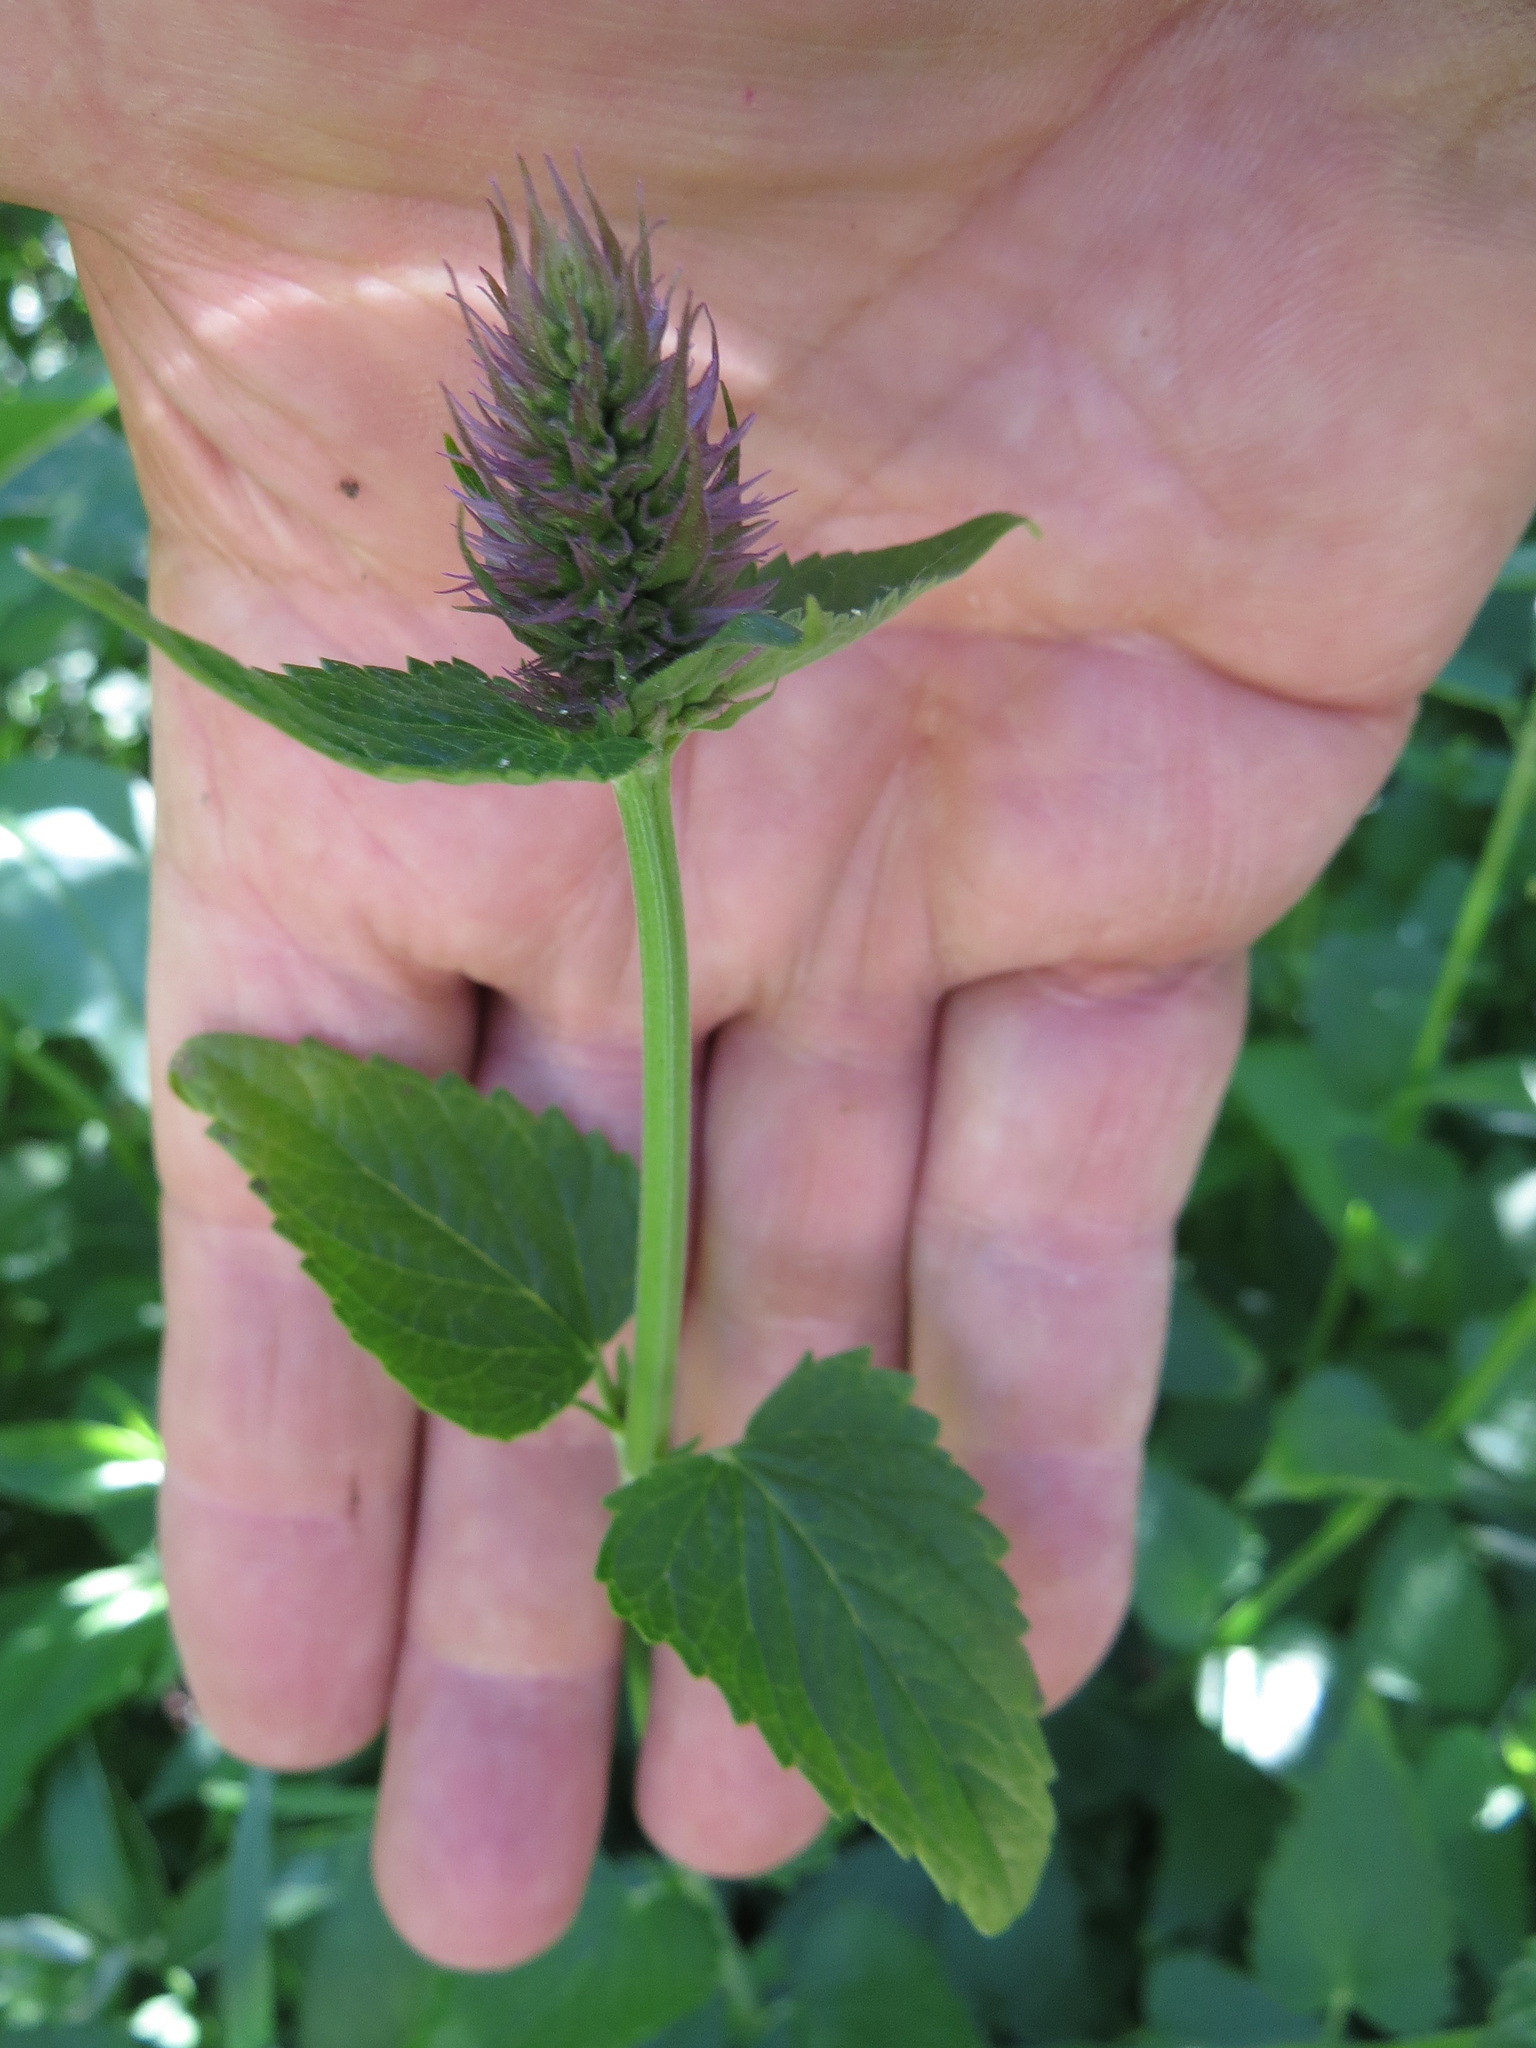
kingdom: Plantae
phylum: Tracheophyta
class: Magnoliopsida
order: Lamiales
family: Lamiaceae
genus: Agastache
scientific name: Agastache urticifolia
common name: Horsemint giant hyssop
